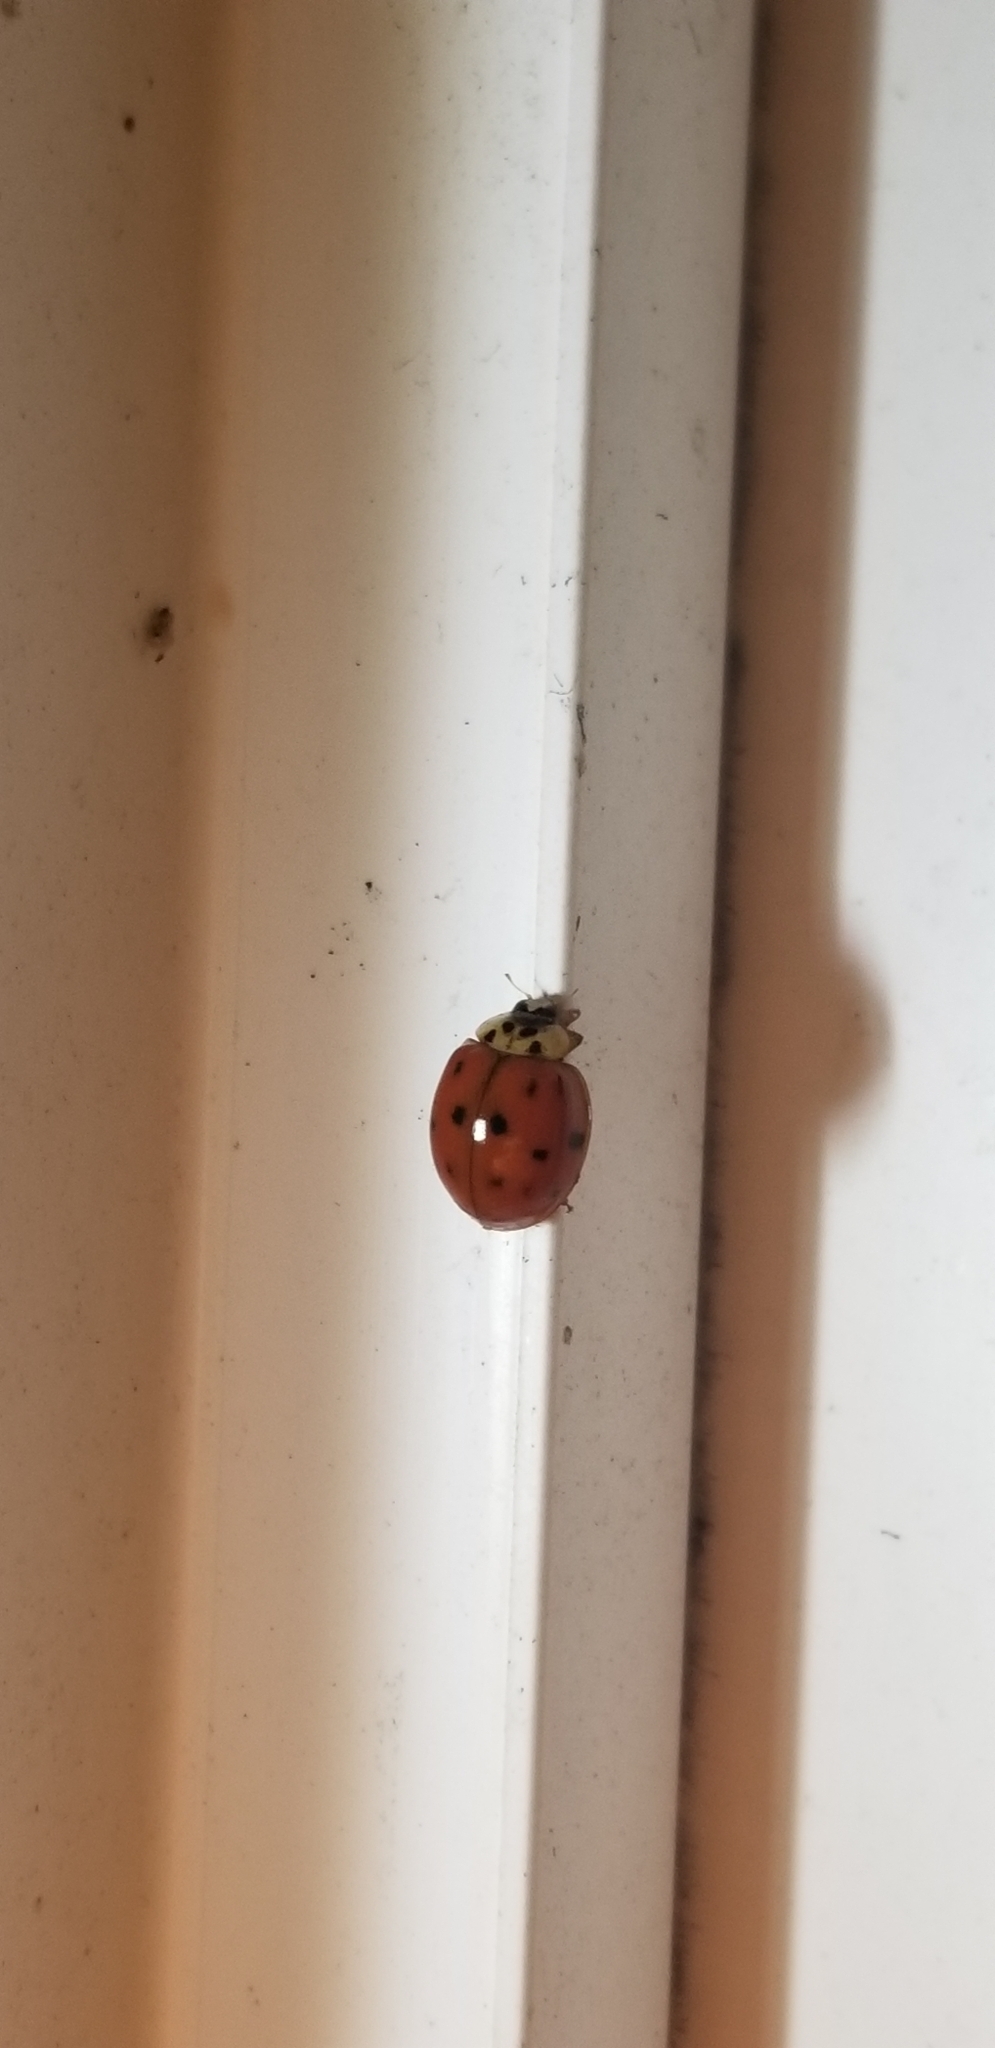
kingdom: Animalia
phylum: Arthropoda
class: Insecta
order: Coleoptera
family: Coccinellidae
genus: Harmonia
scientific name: Harmonia axyridis
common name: Harlequin ladybird
